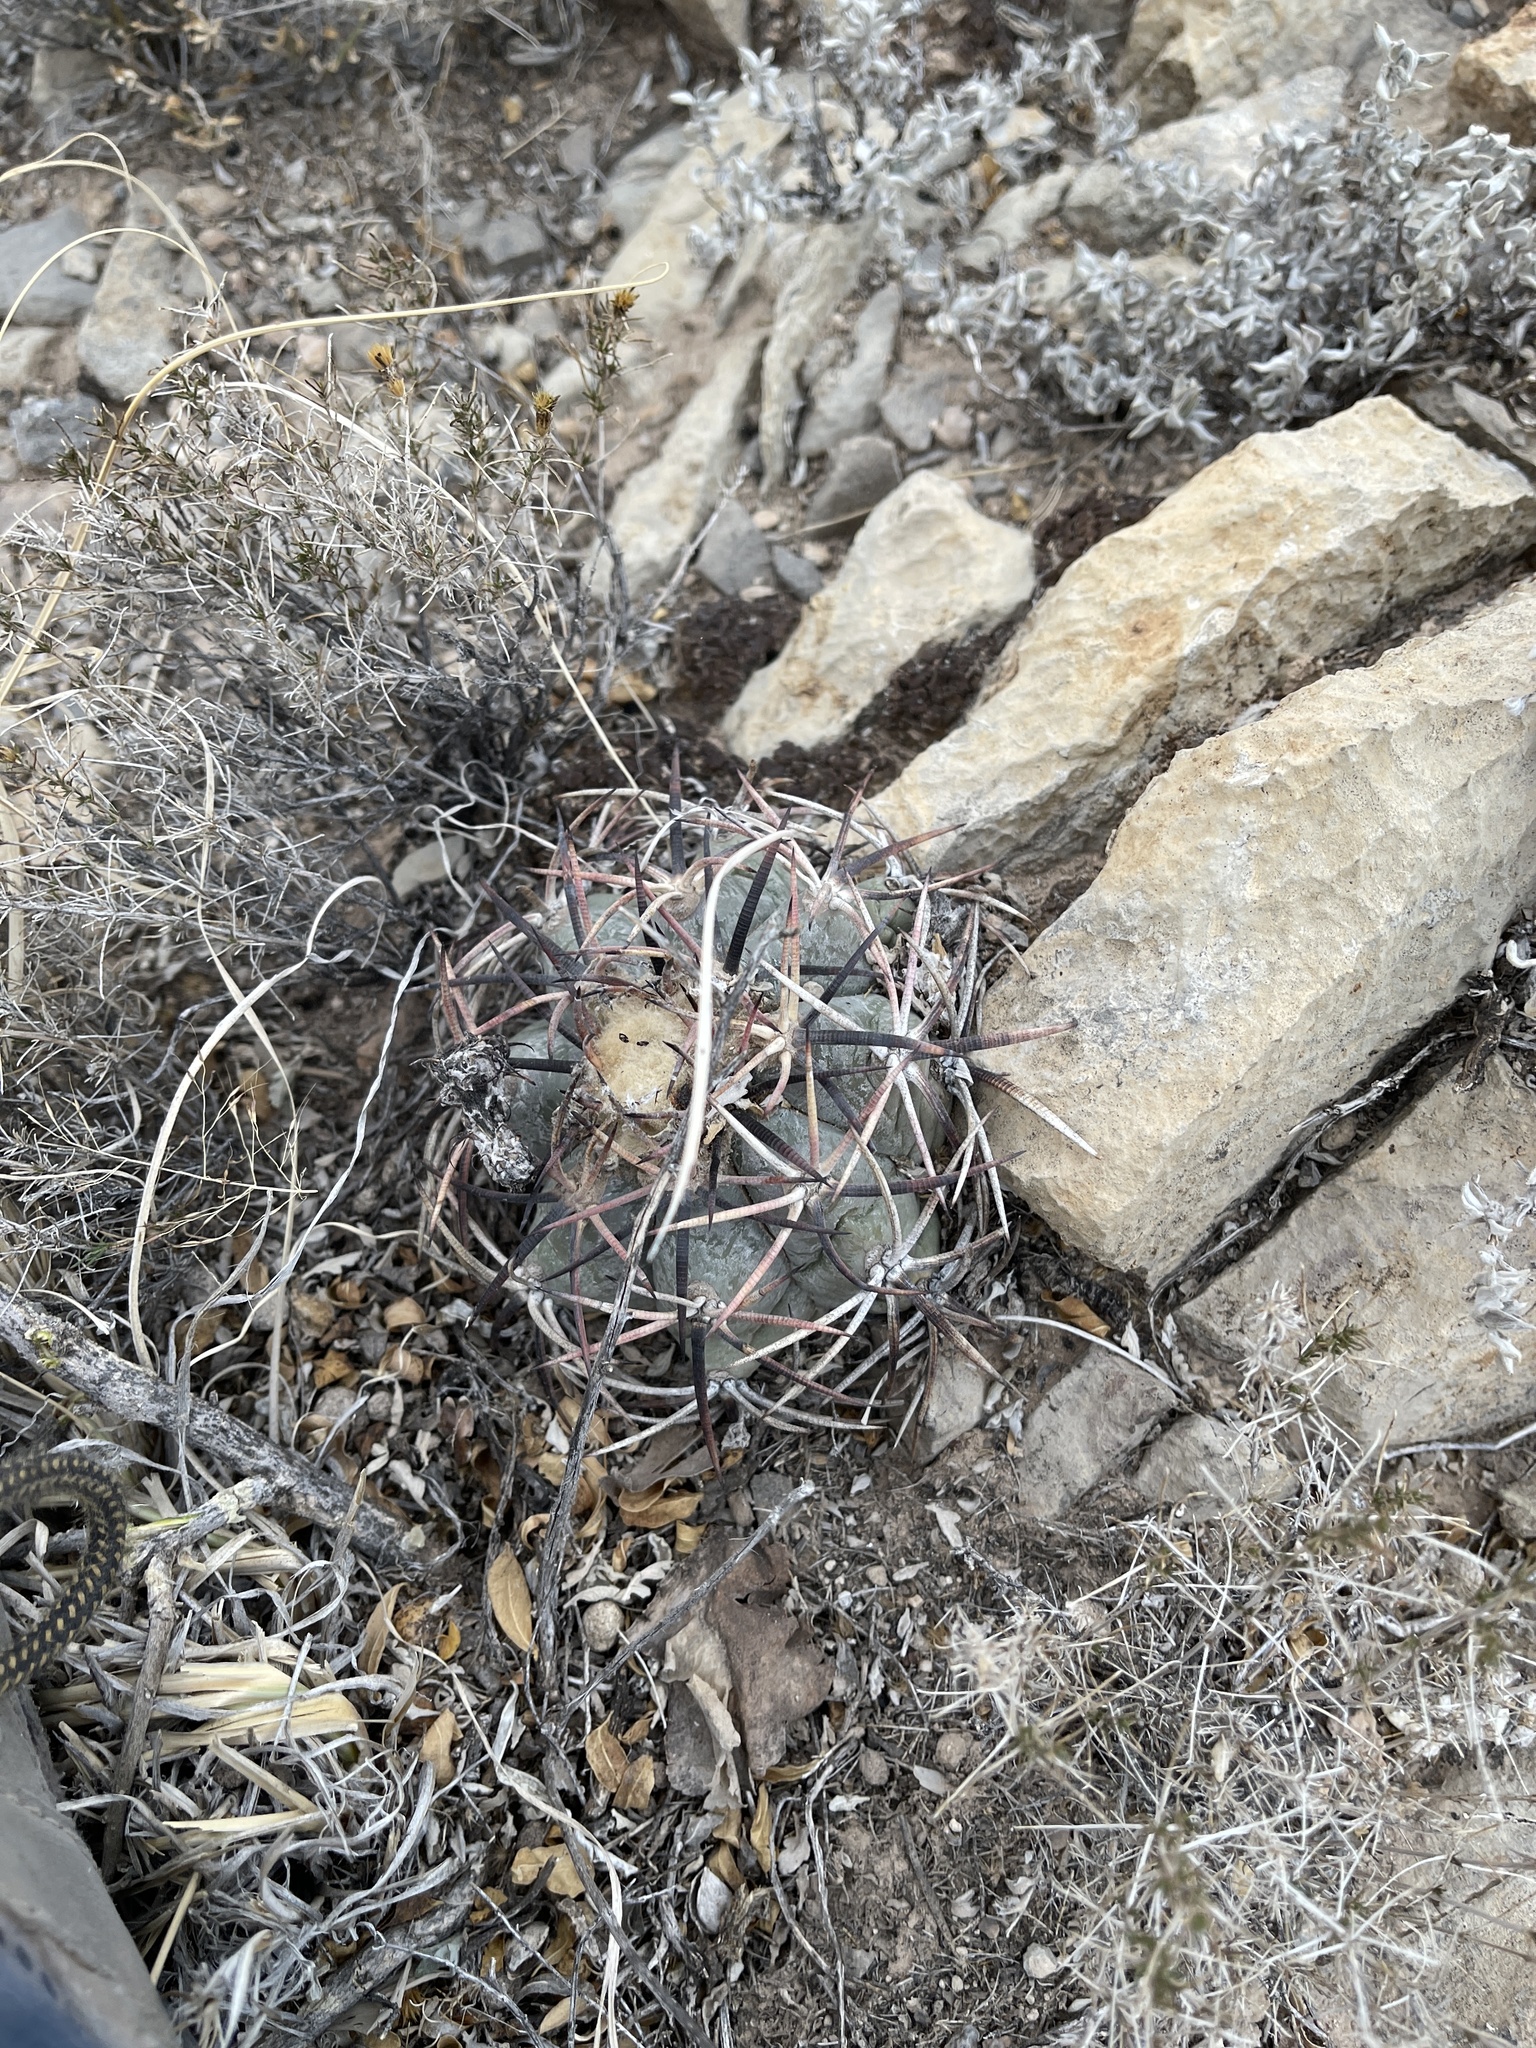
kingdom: Plantae
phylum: Tracheophyta
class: Magnoliopsida
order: Caryophyllales
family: Cactaceae
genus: Echinocactus
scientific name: Echinocactus horizonthalonius
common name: Devilshead
